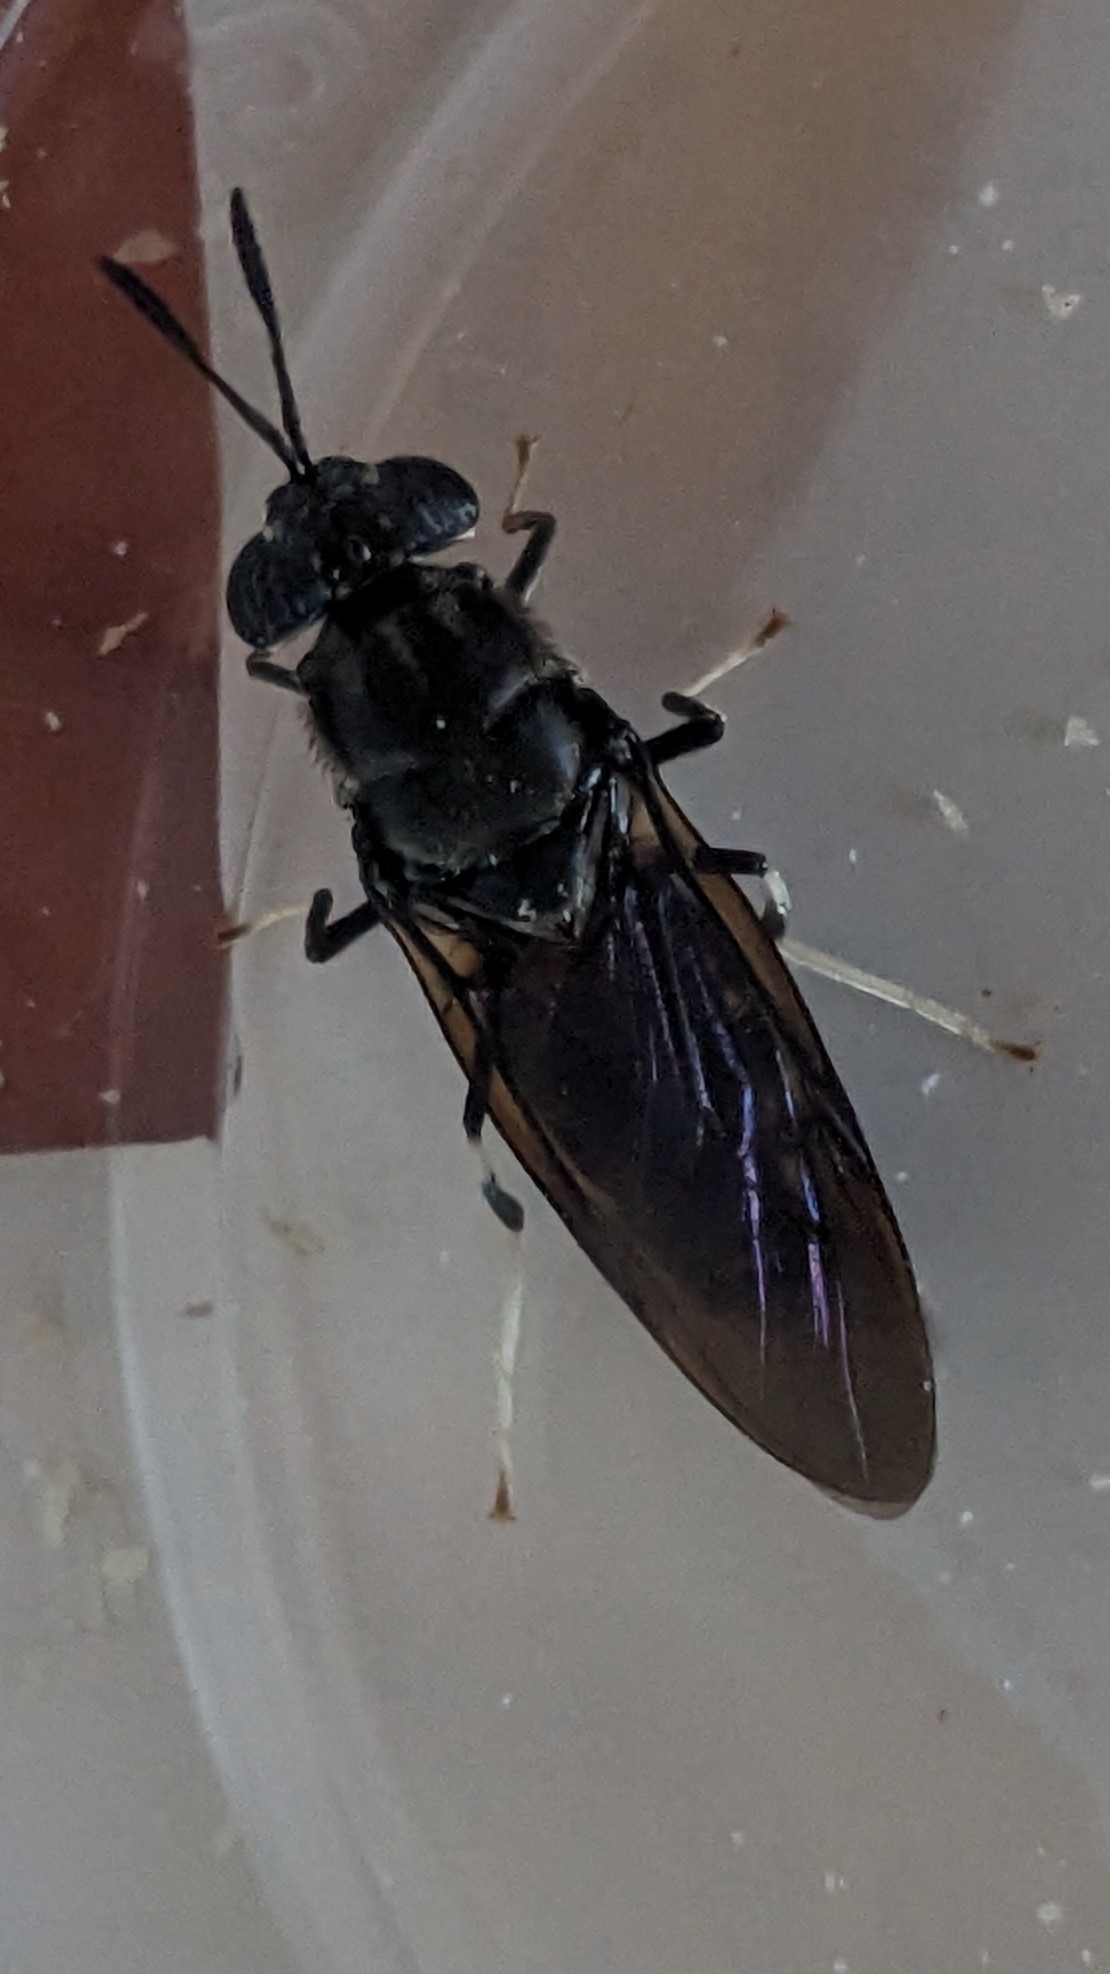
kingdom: Animalia
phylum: Arthropoda
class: Insecta
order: Diptera
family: Stratiomyidae
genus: Hermetia
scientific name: Hermetia illucens
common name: Black soldier fly
